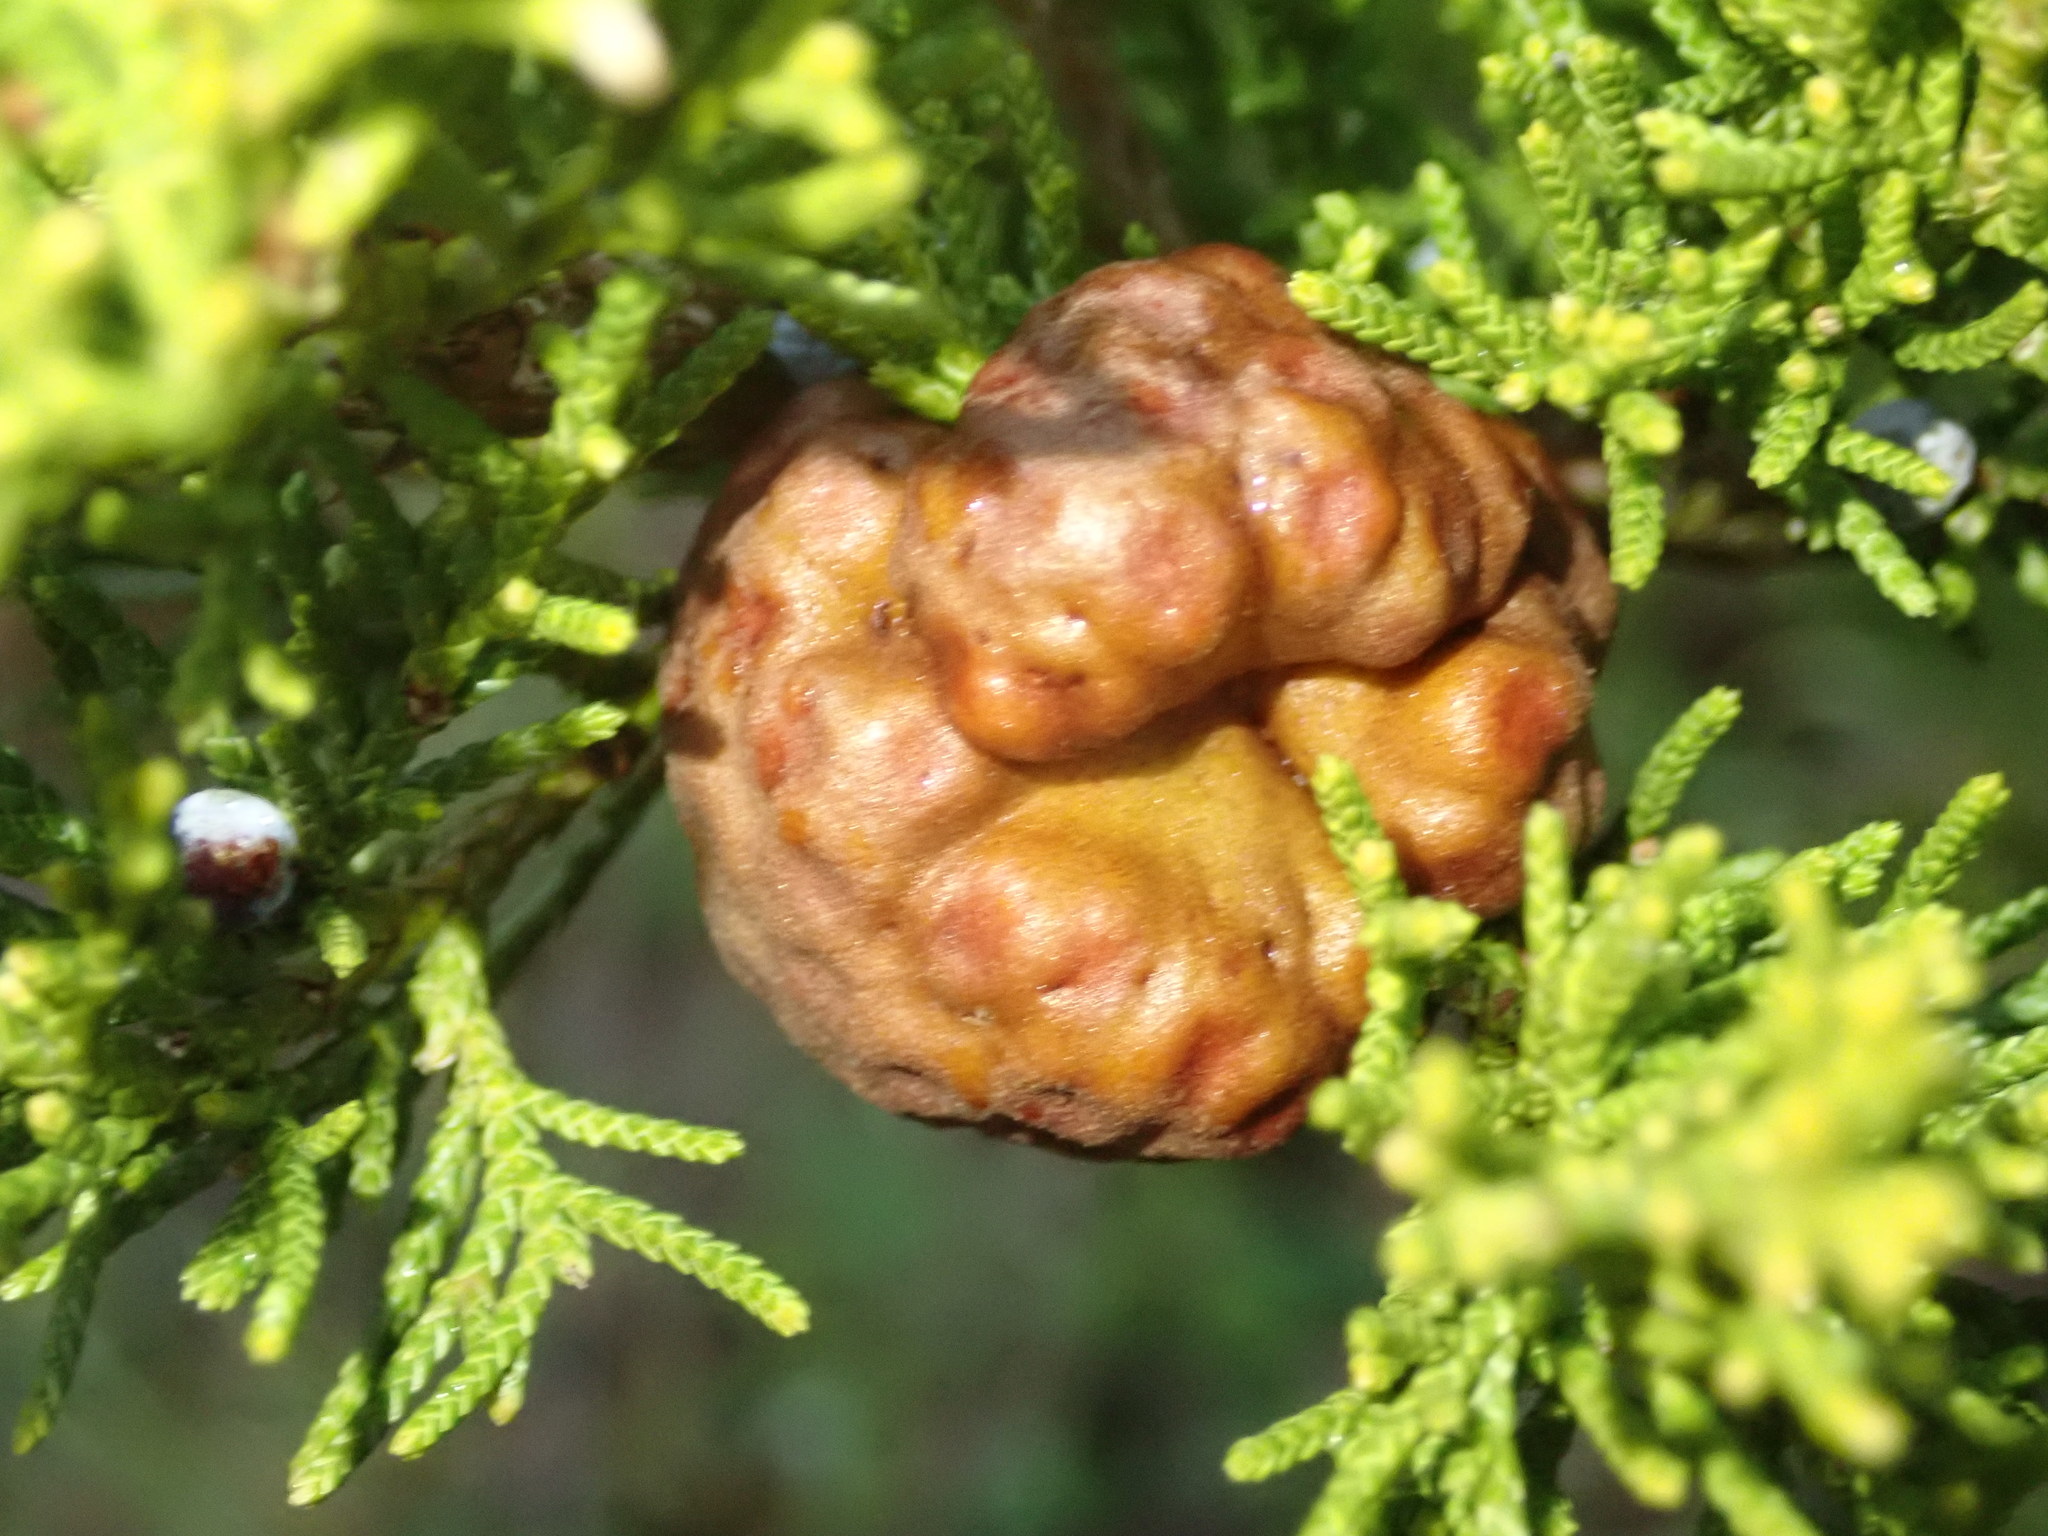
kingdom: Fungi
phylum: Basidiomycota
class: Pucciniomycetes
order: Pucciniales
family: Gymnosporangiaceae
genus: Gymnosporangium
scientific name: Gymnosporangium juniperi-virginianae
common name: Juniper-apple rust
